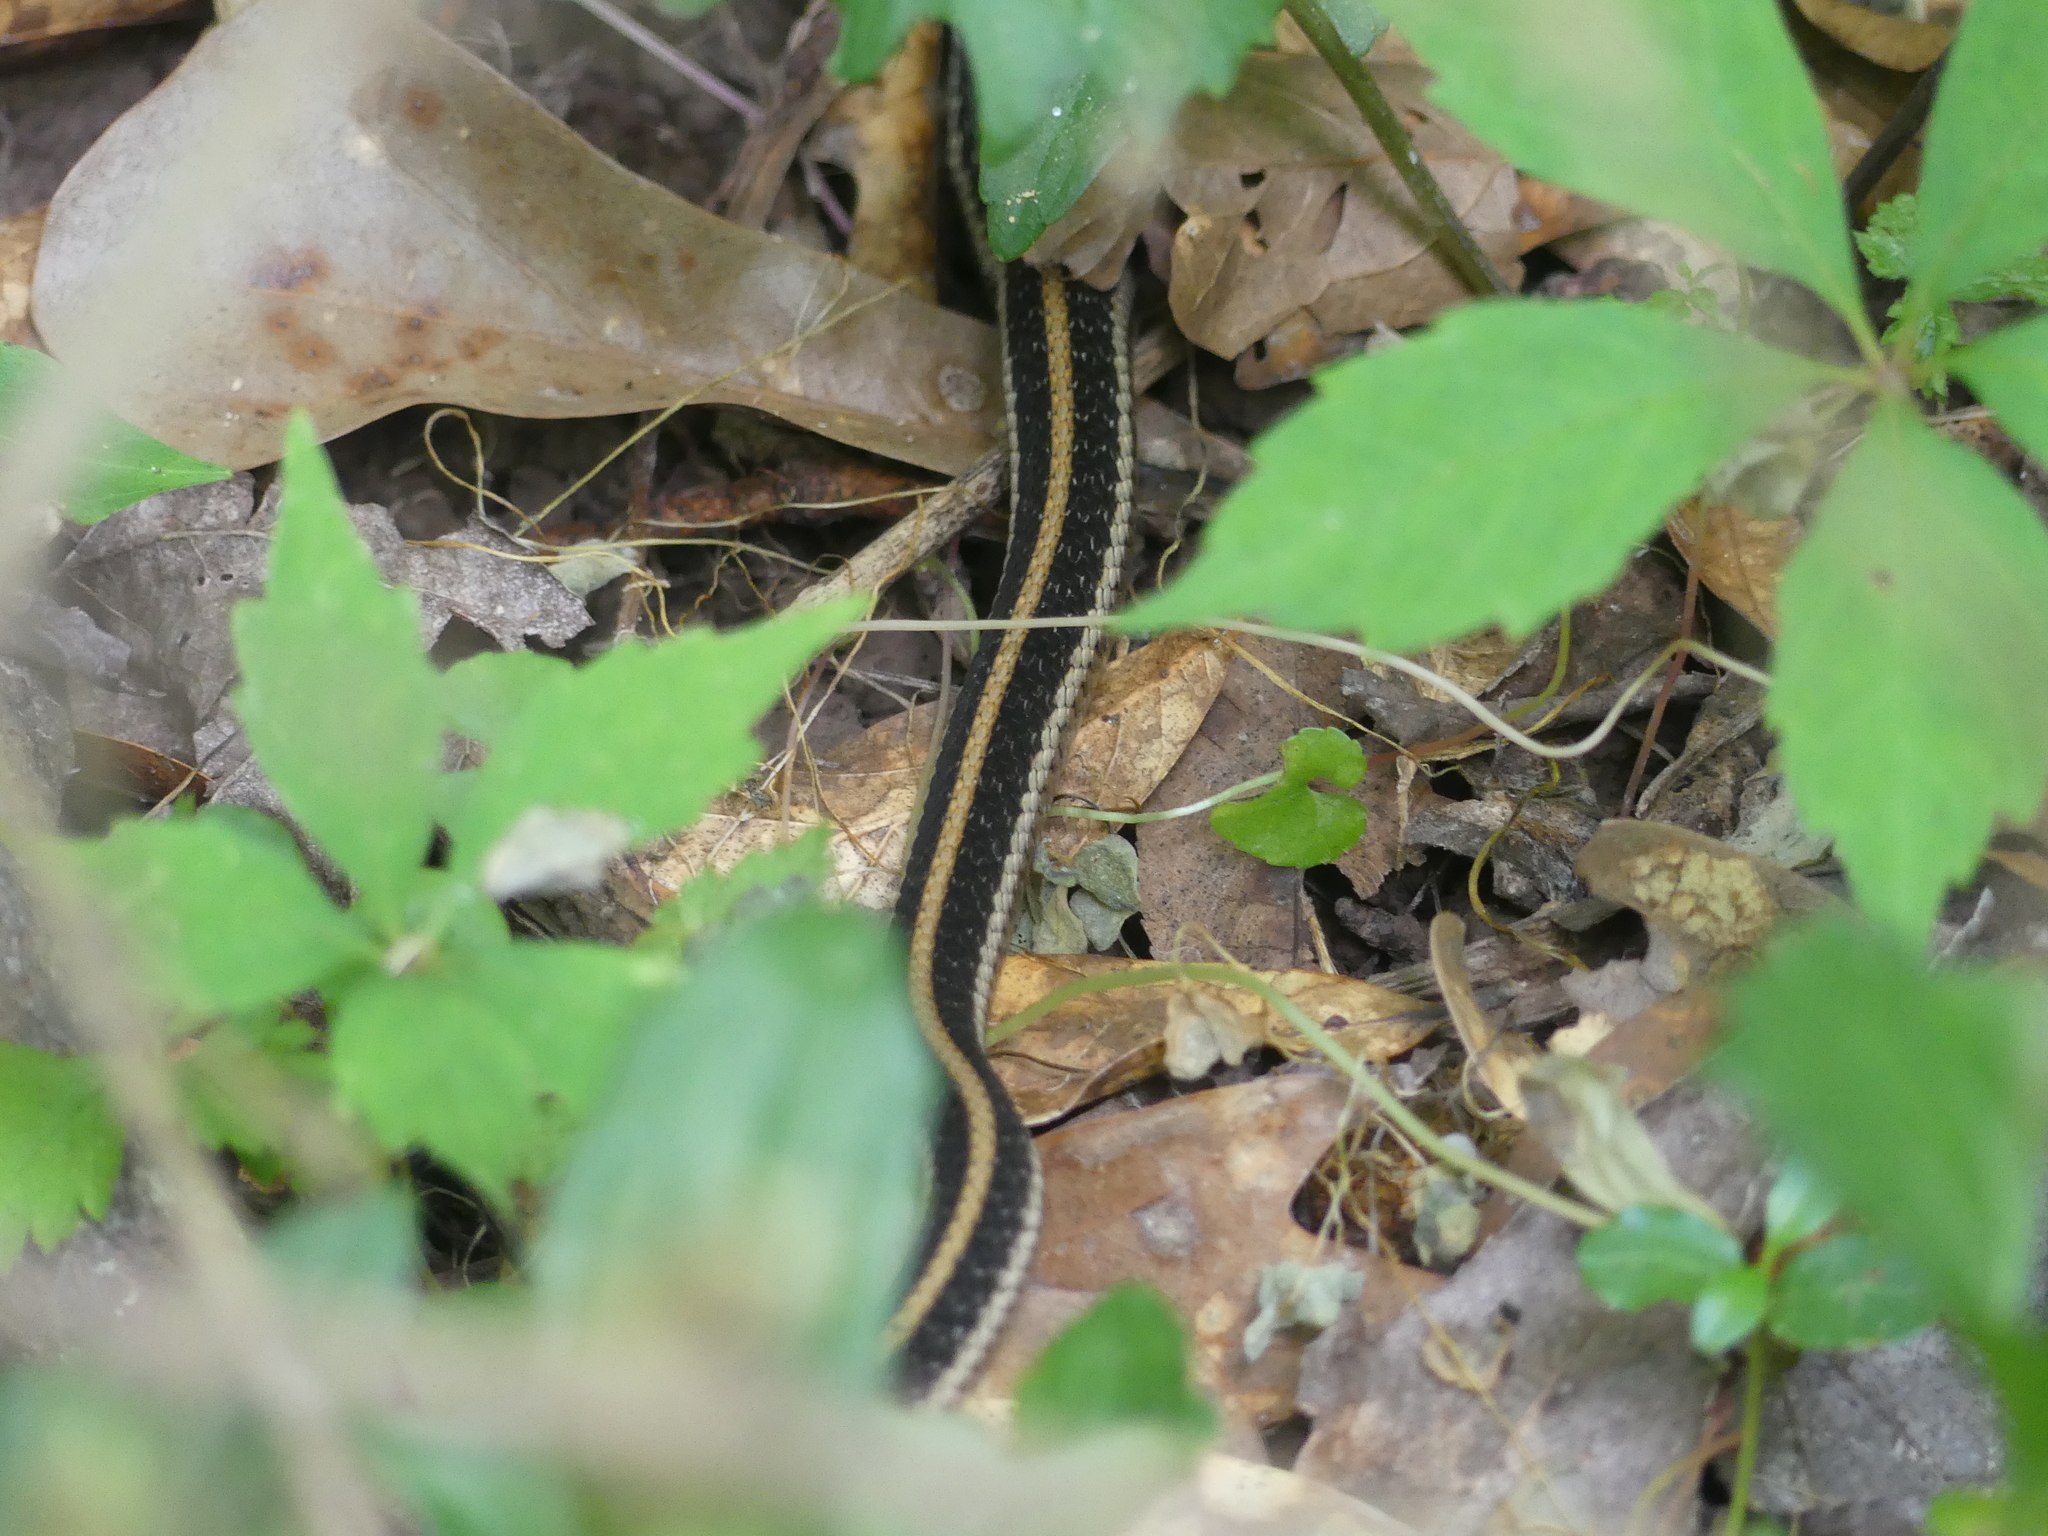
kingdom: Animalia
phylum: Chordata
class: Squamata
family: Colubridae
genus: Thamnophis
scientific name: Thamnophis sirtalis
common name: Common garter snake
